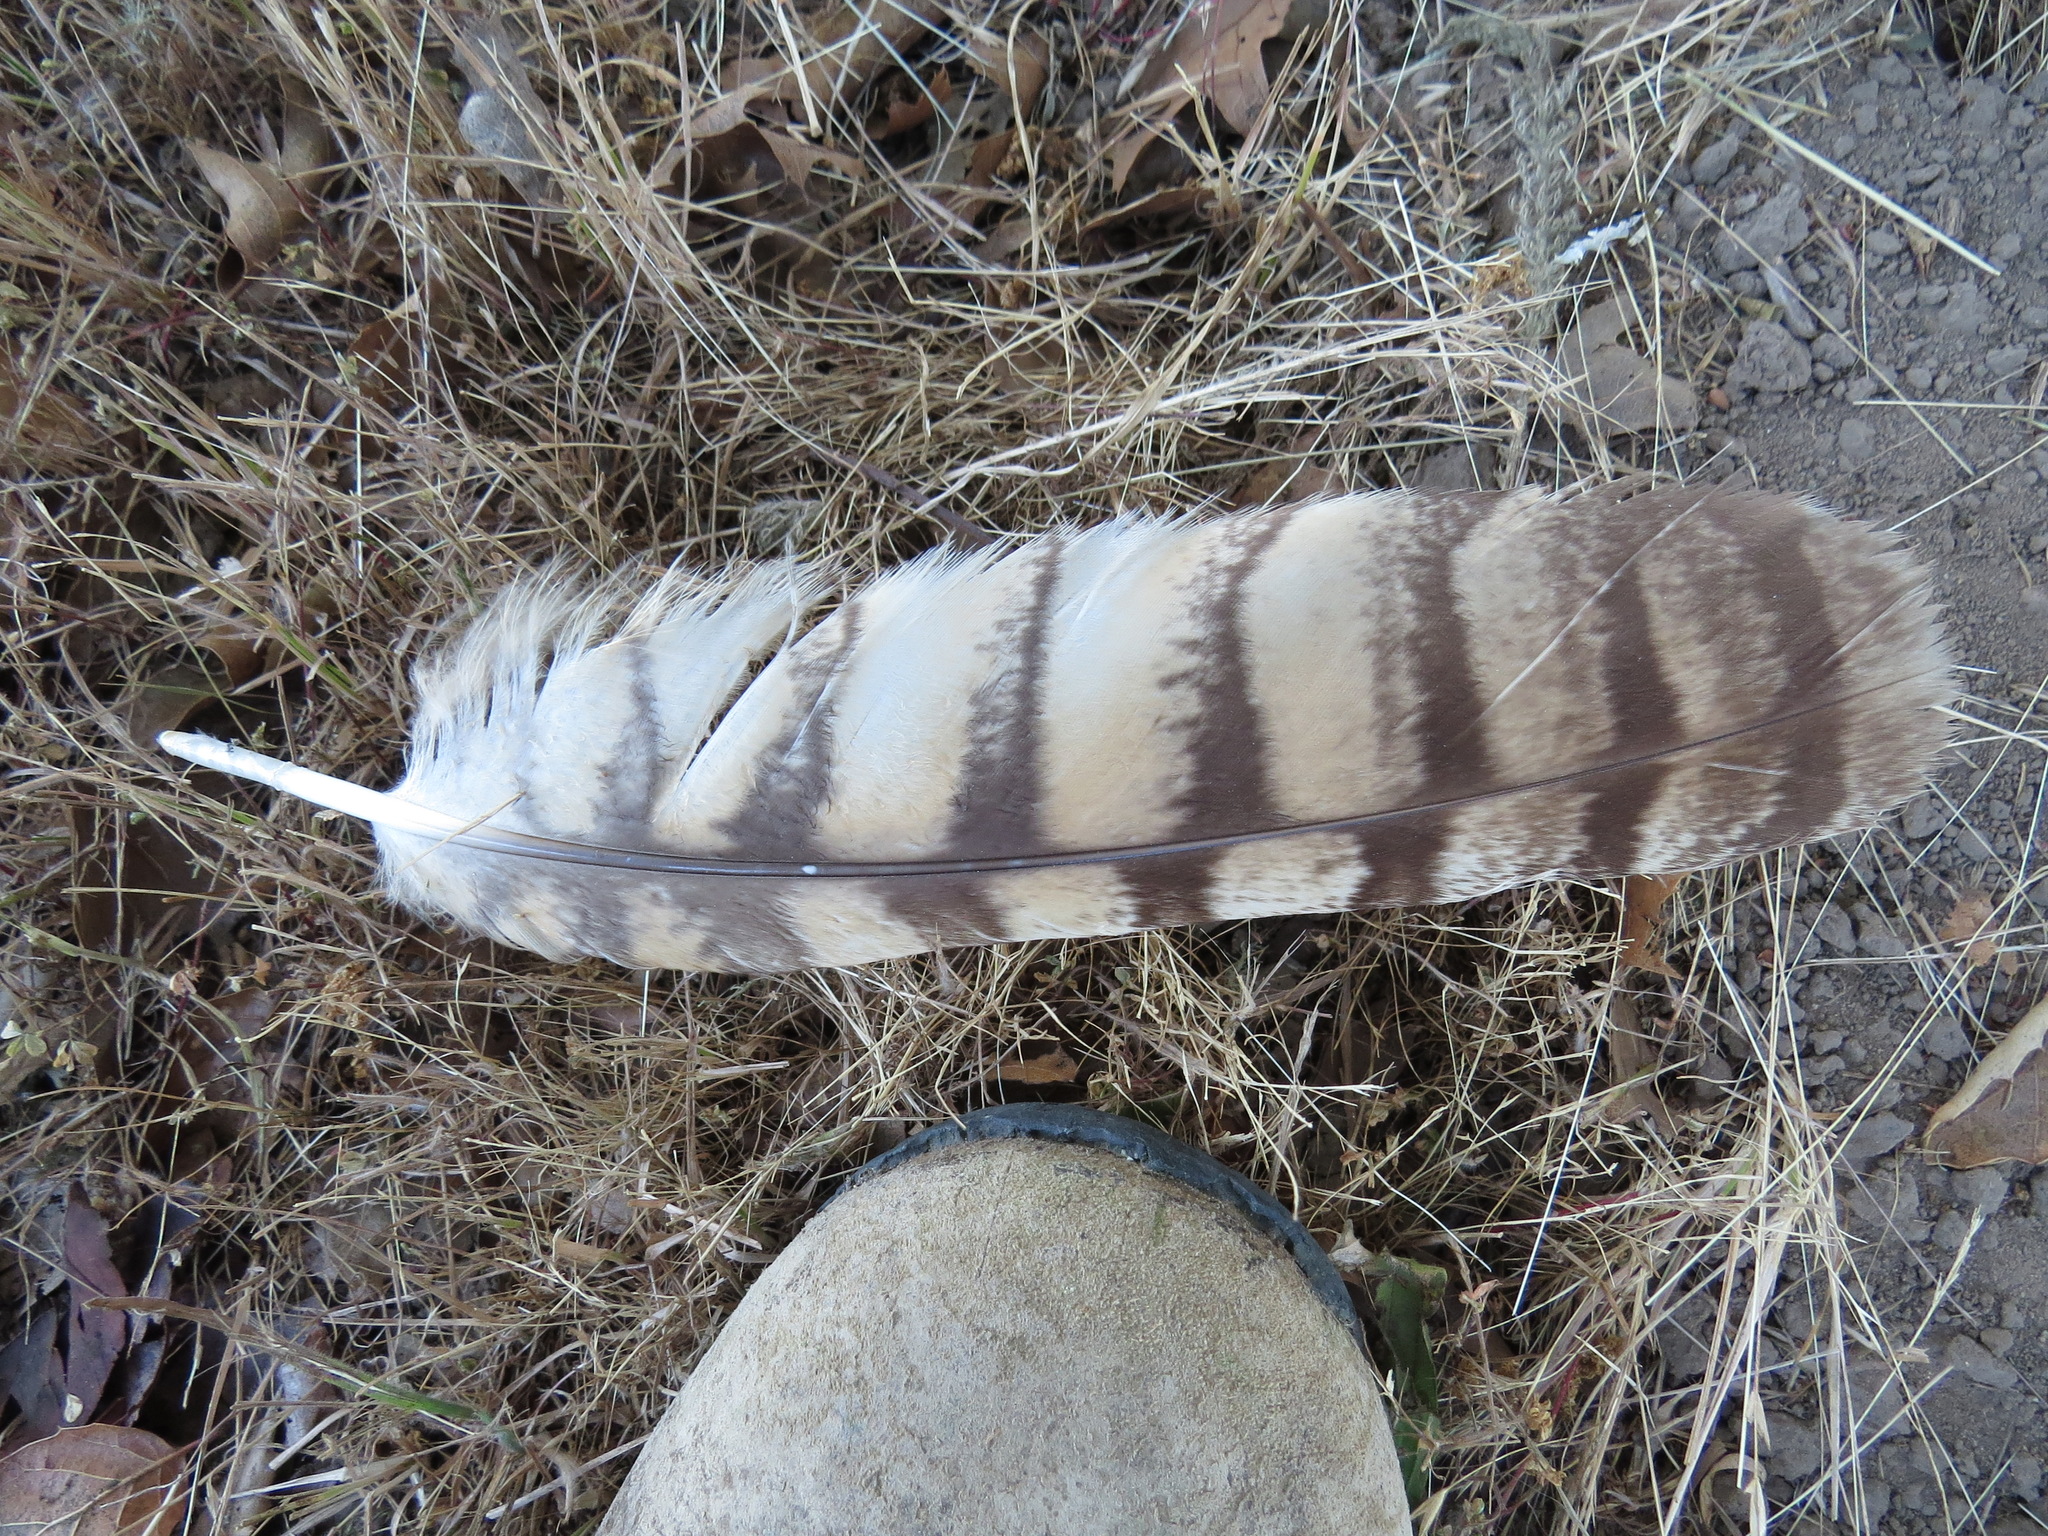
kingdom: Animalia
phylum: Chordata
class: Aves
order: Strigiformes
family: Strigidae
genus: Bubo
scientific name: Bubo virginianus
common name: Great horned owl
